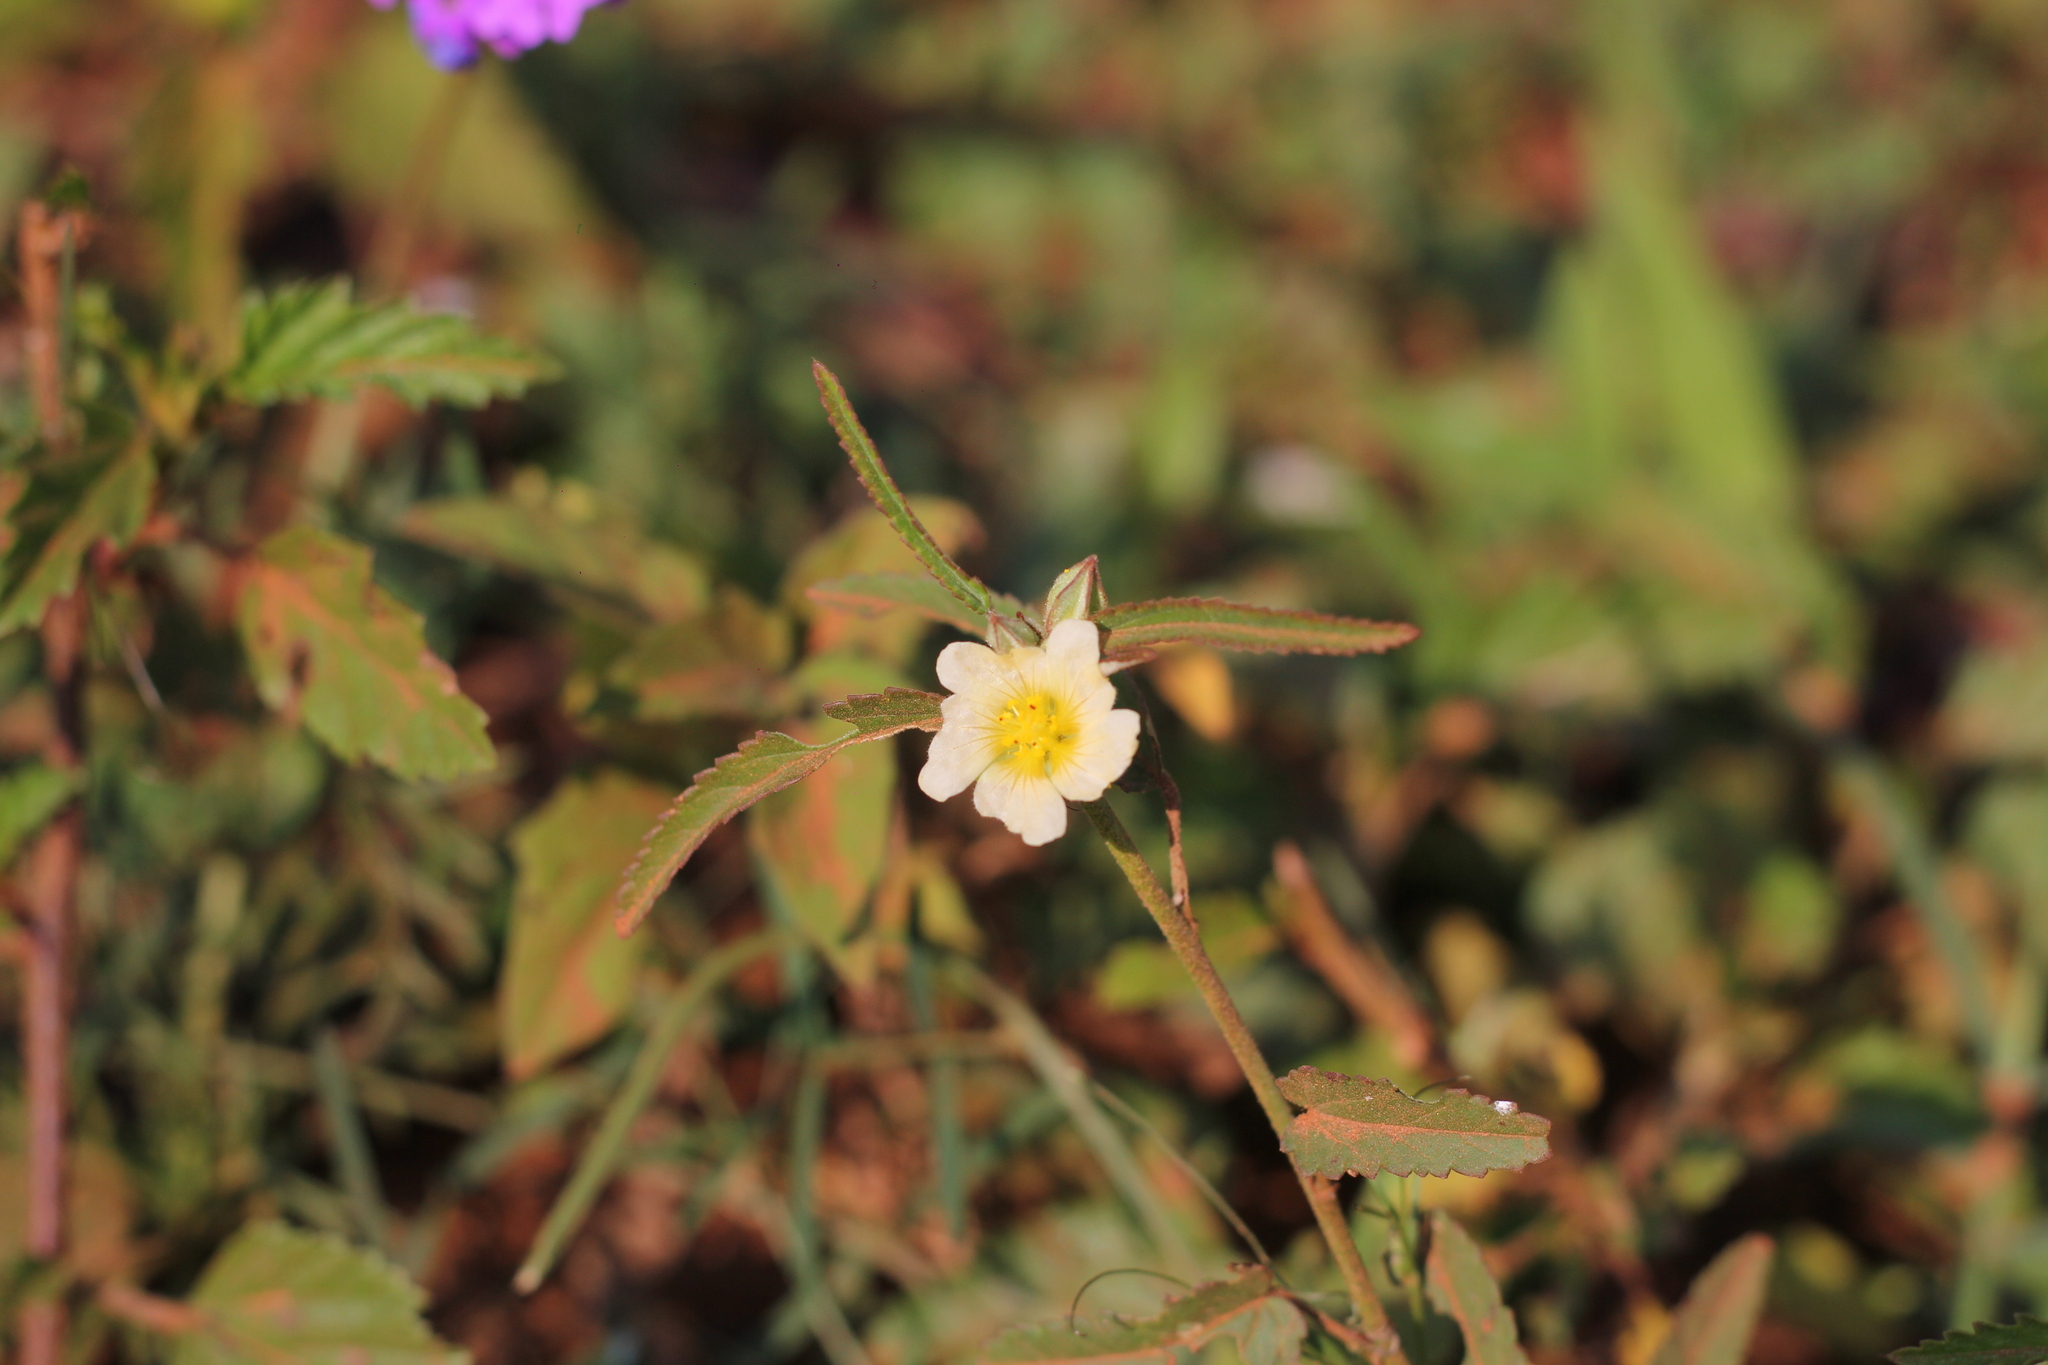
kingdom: Plantae
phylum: Tracheophyta
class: Magnoliopsida
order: Malvales
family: Malvaceae
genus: Sida
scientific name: Sida rhombifolia
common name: Queensland-hemp
